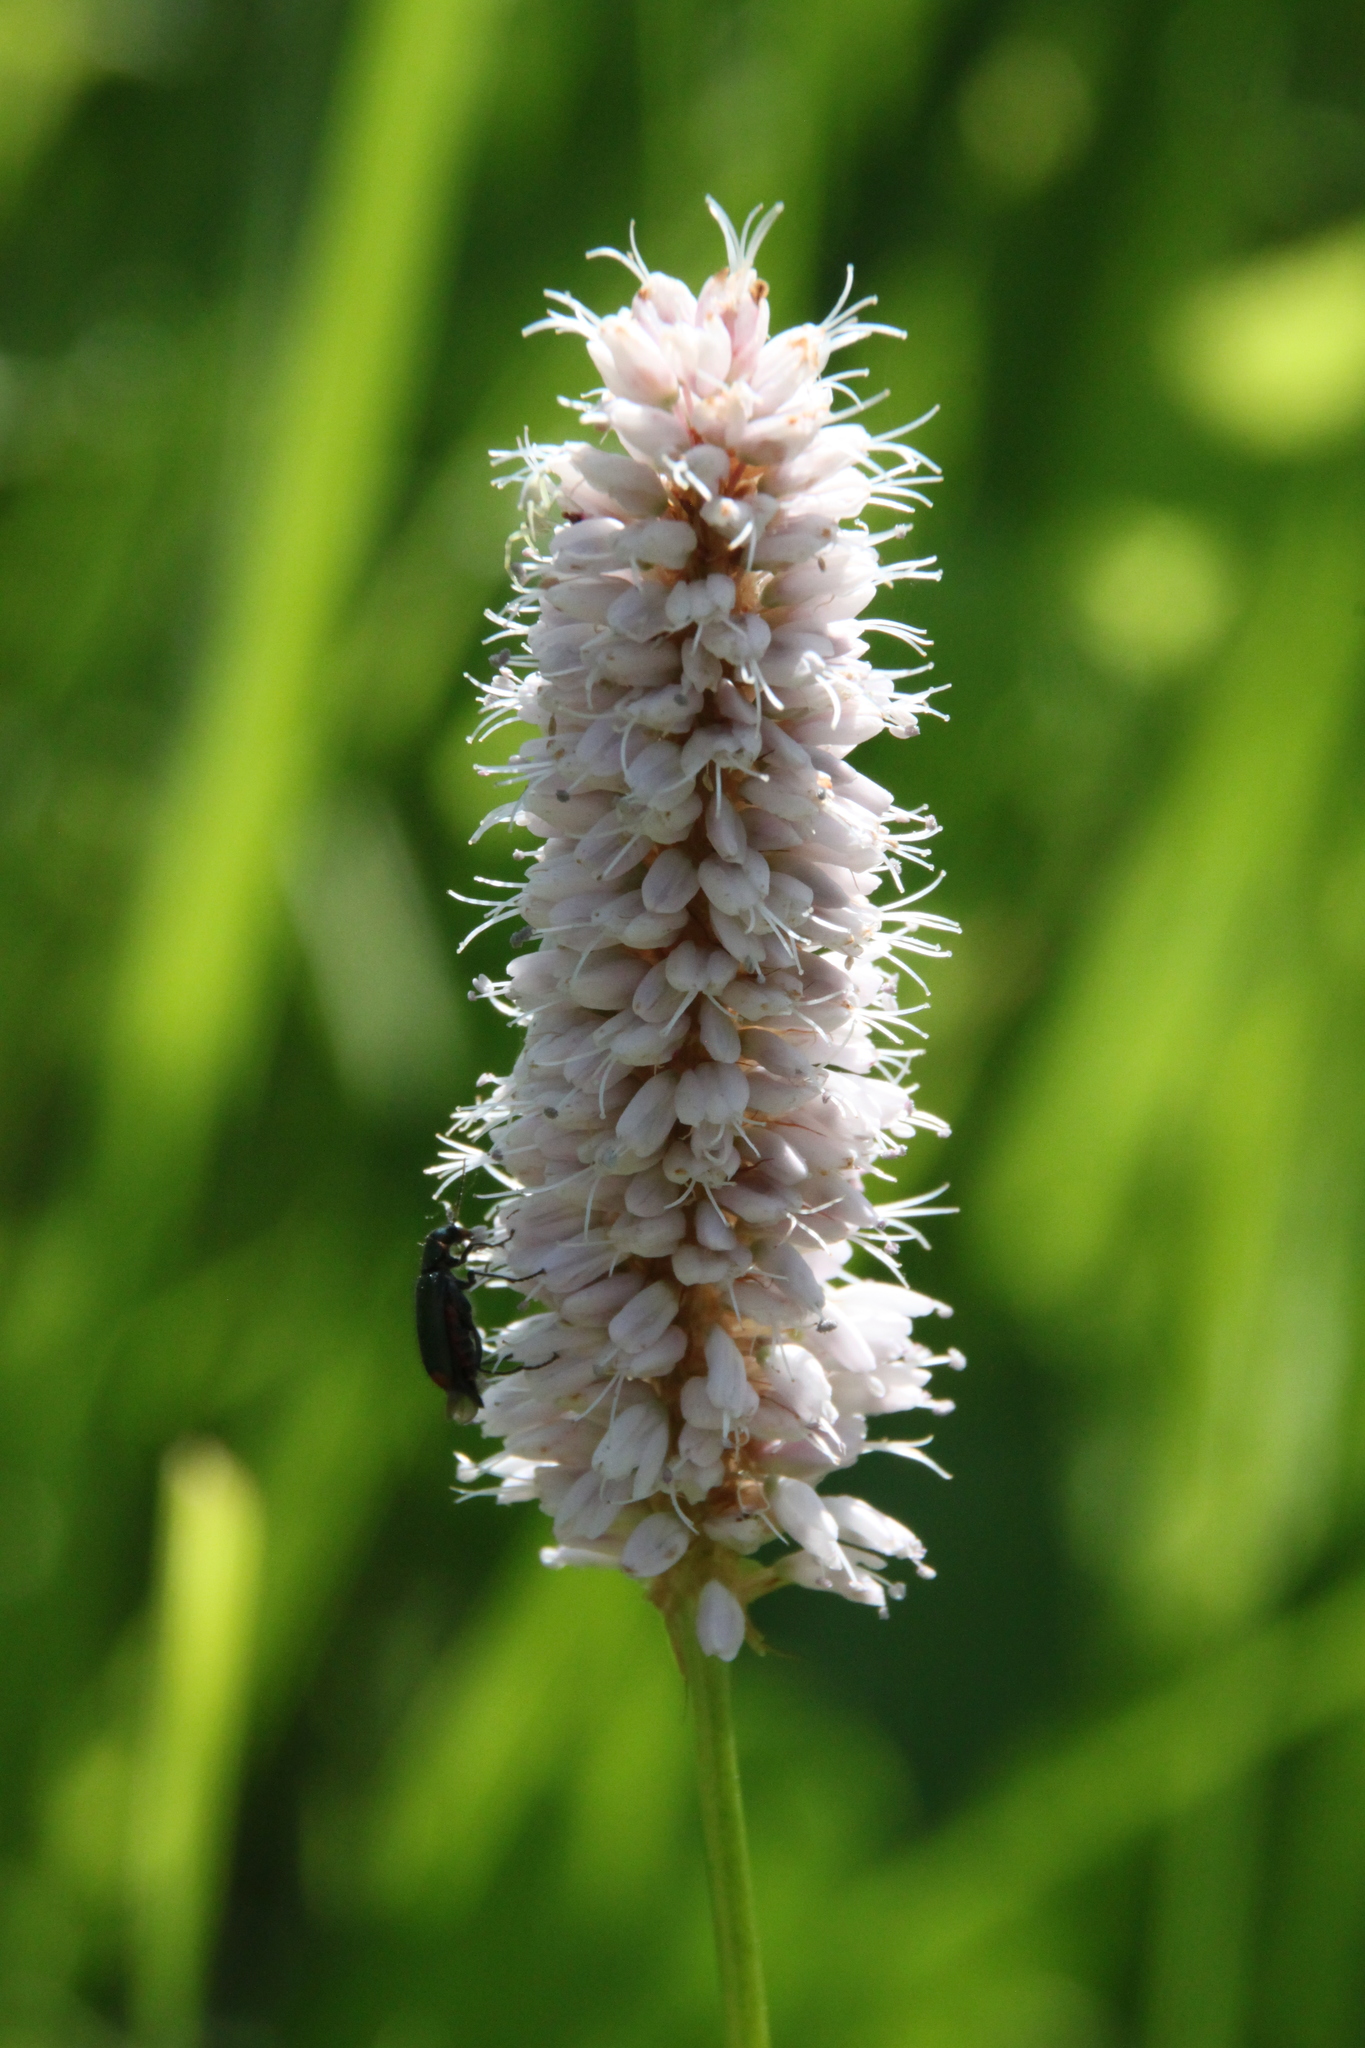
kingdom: Plantae
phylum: Tracheophyta
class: Magnoliopsida
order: Caryophyllales
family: Polygonaceae
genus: Bistorta
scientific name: Bistorta officinalis
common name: Common bistort
